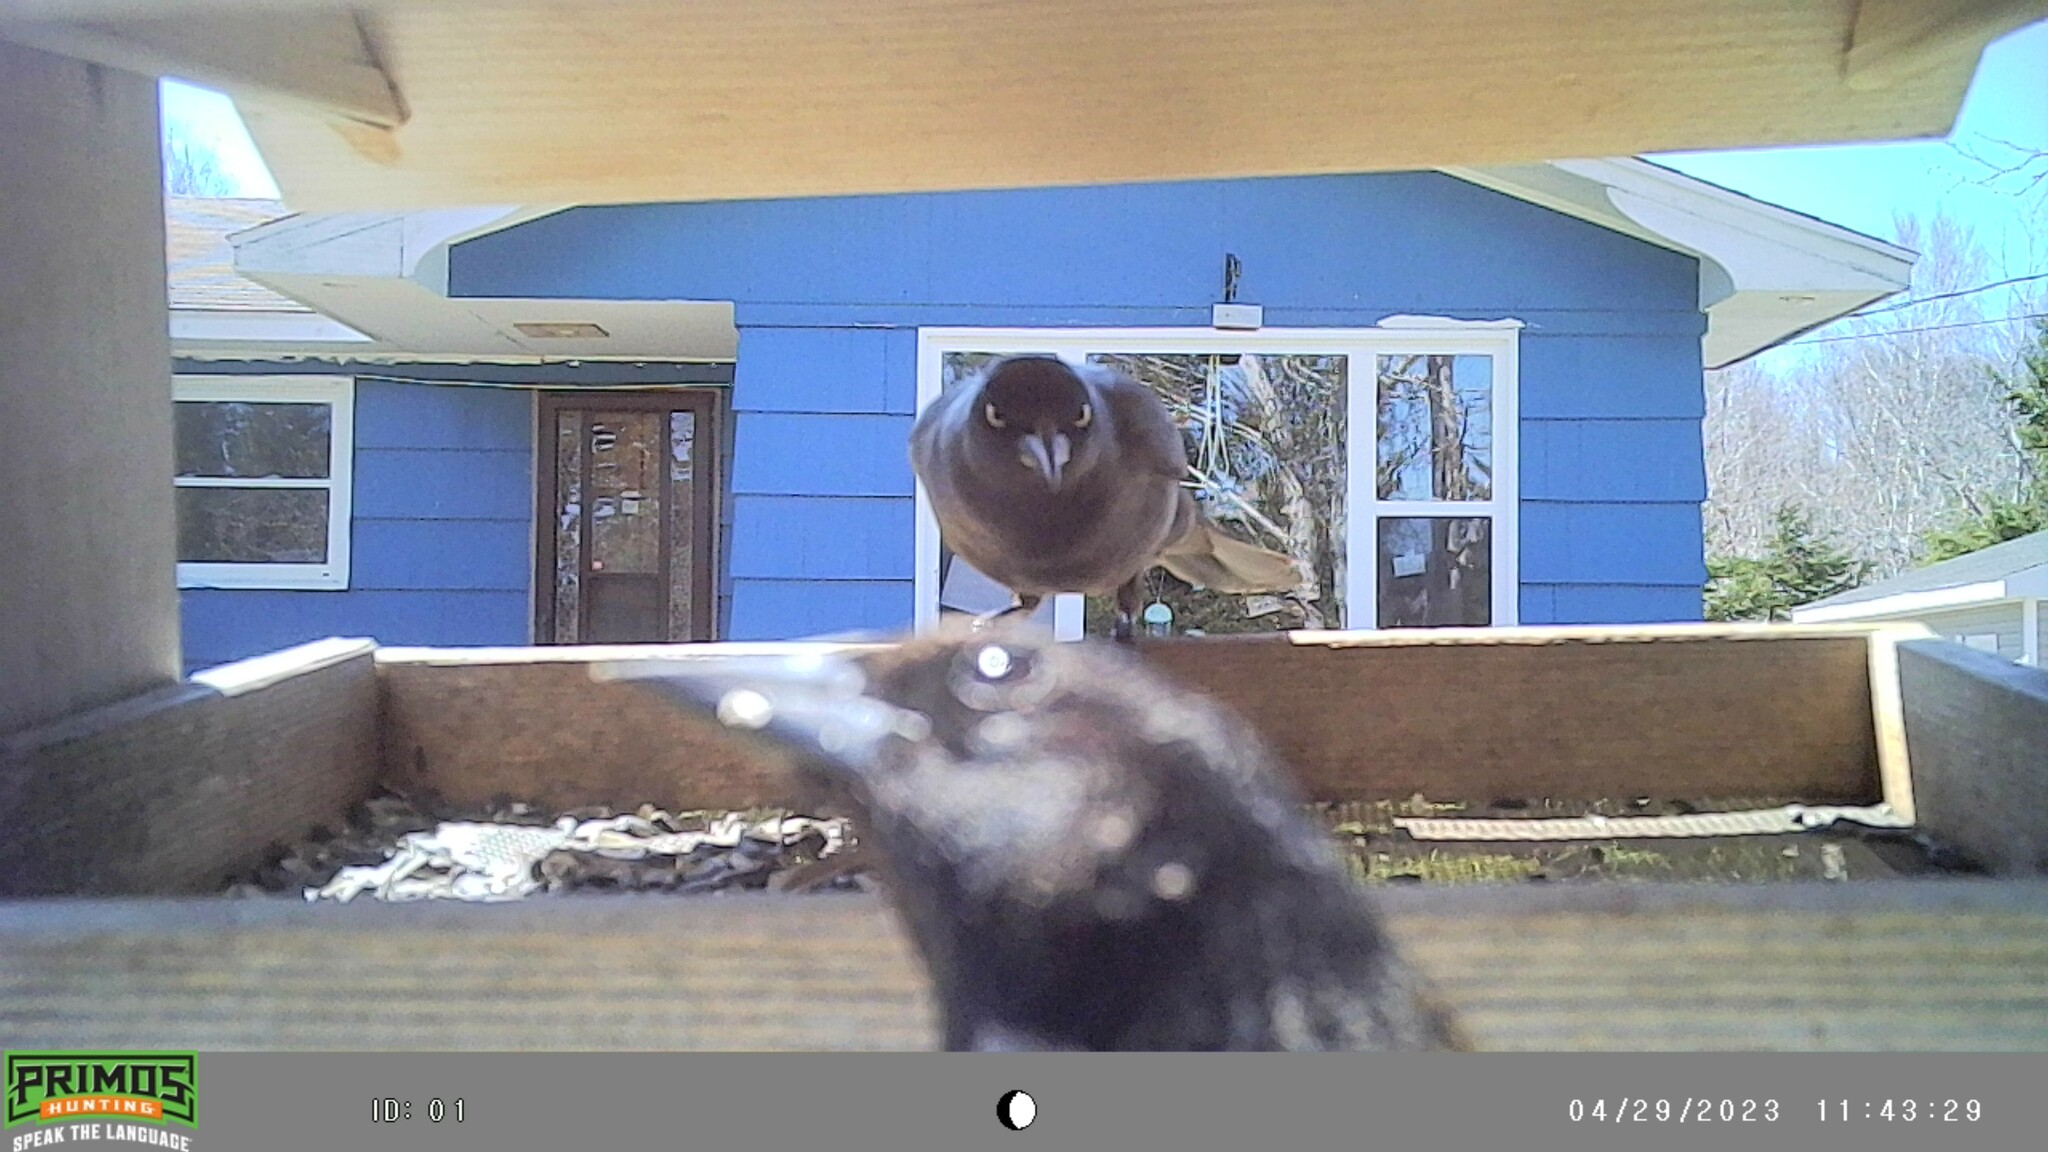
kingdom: Animalia
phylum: Chordata
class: Aves
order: Passeriformes
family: Icteridae
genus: Quiscalus
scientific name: Quiscalus quiscula
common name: Common grackle
